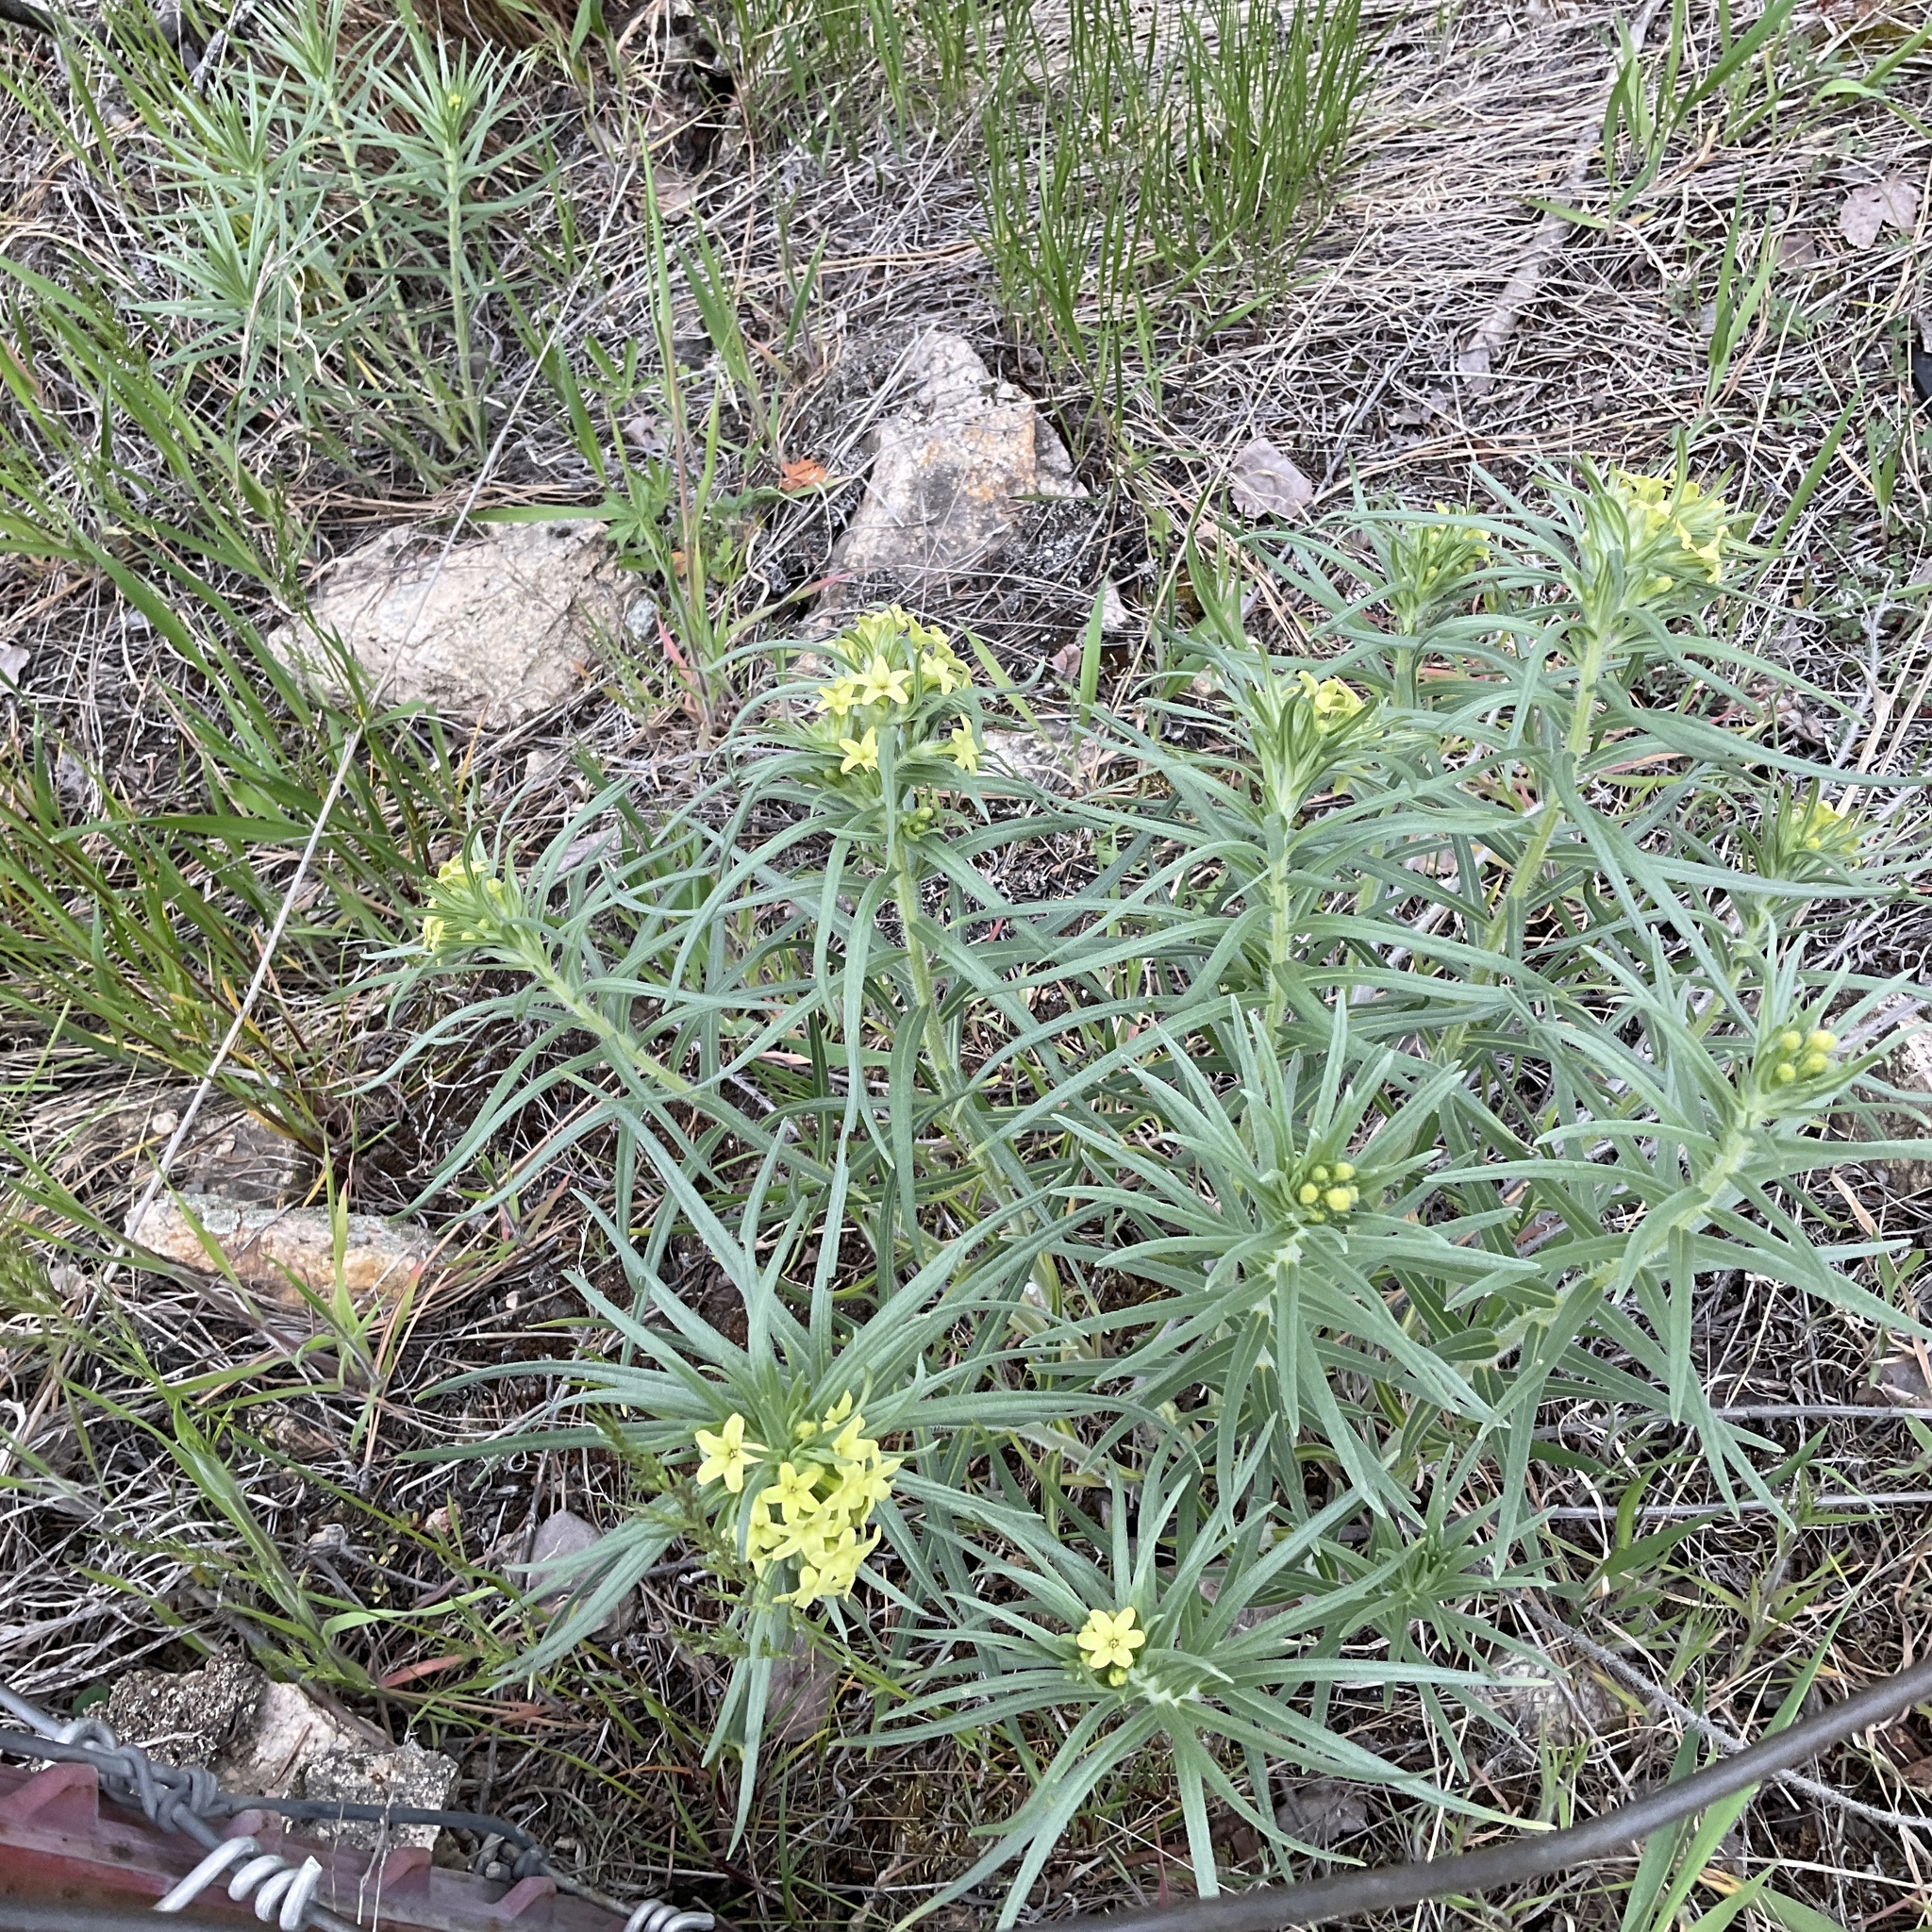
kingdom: Plantae
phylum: Tracheophyta
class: Magnoliopsida
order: Boraginales
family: Boraginaceae
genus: Lithospermum
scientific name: Lithospermum ruderale
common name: Western gromwell
